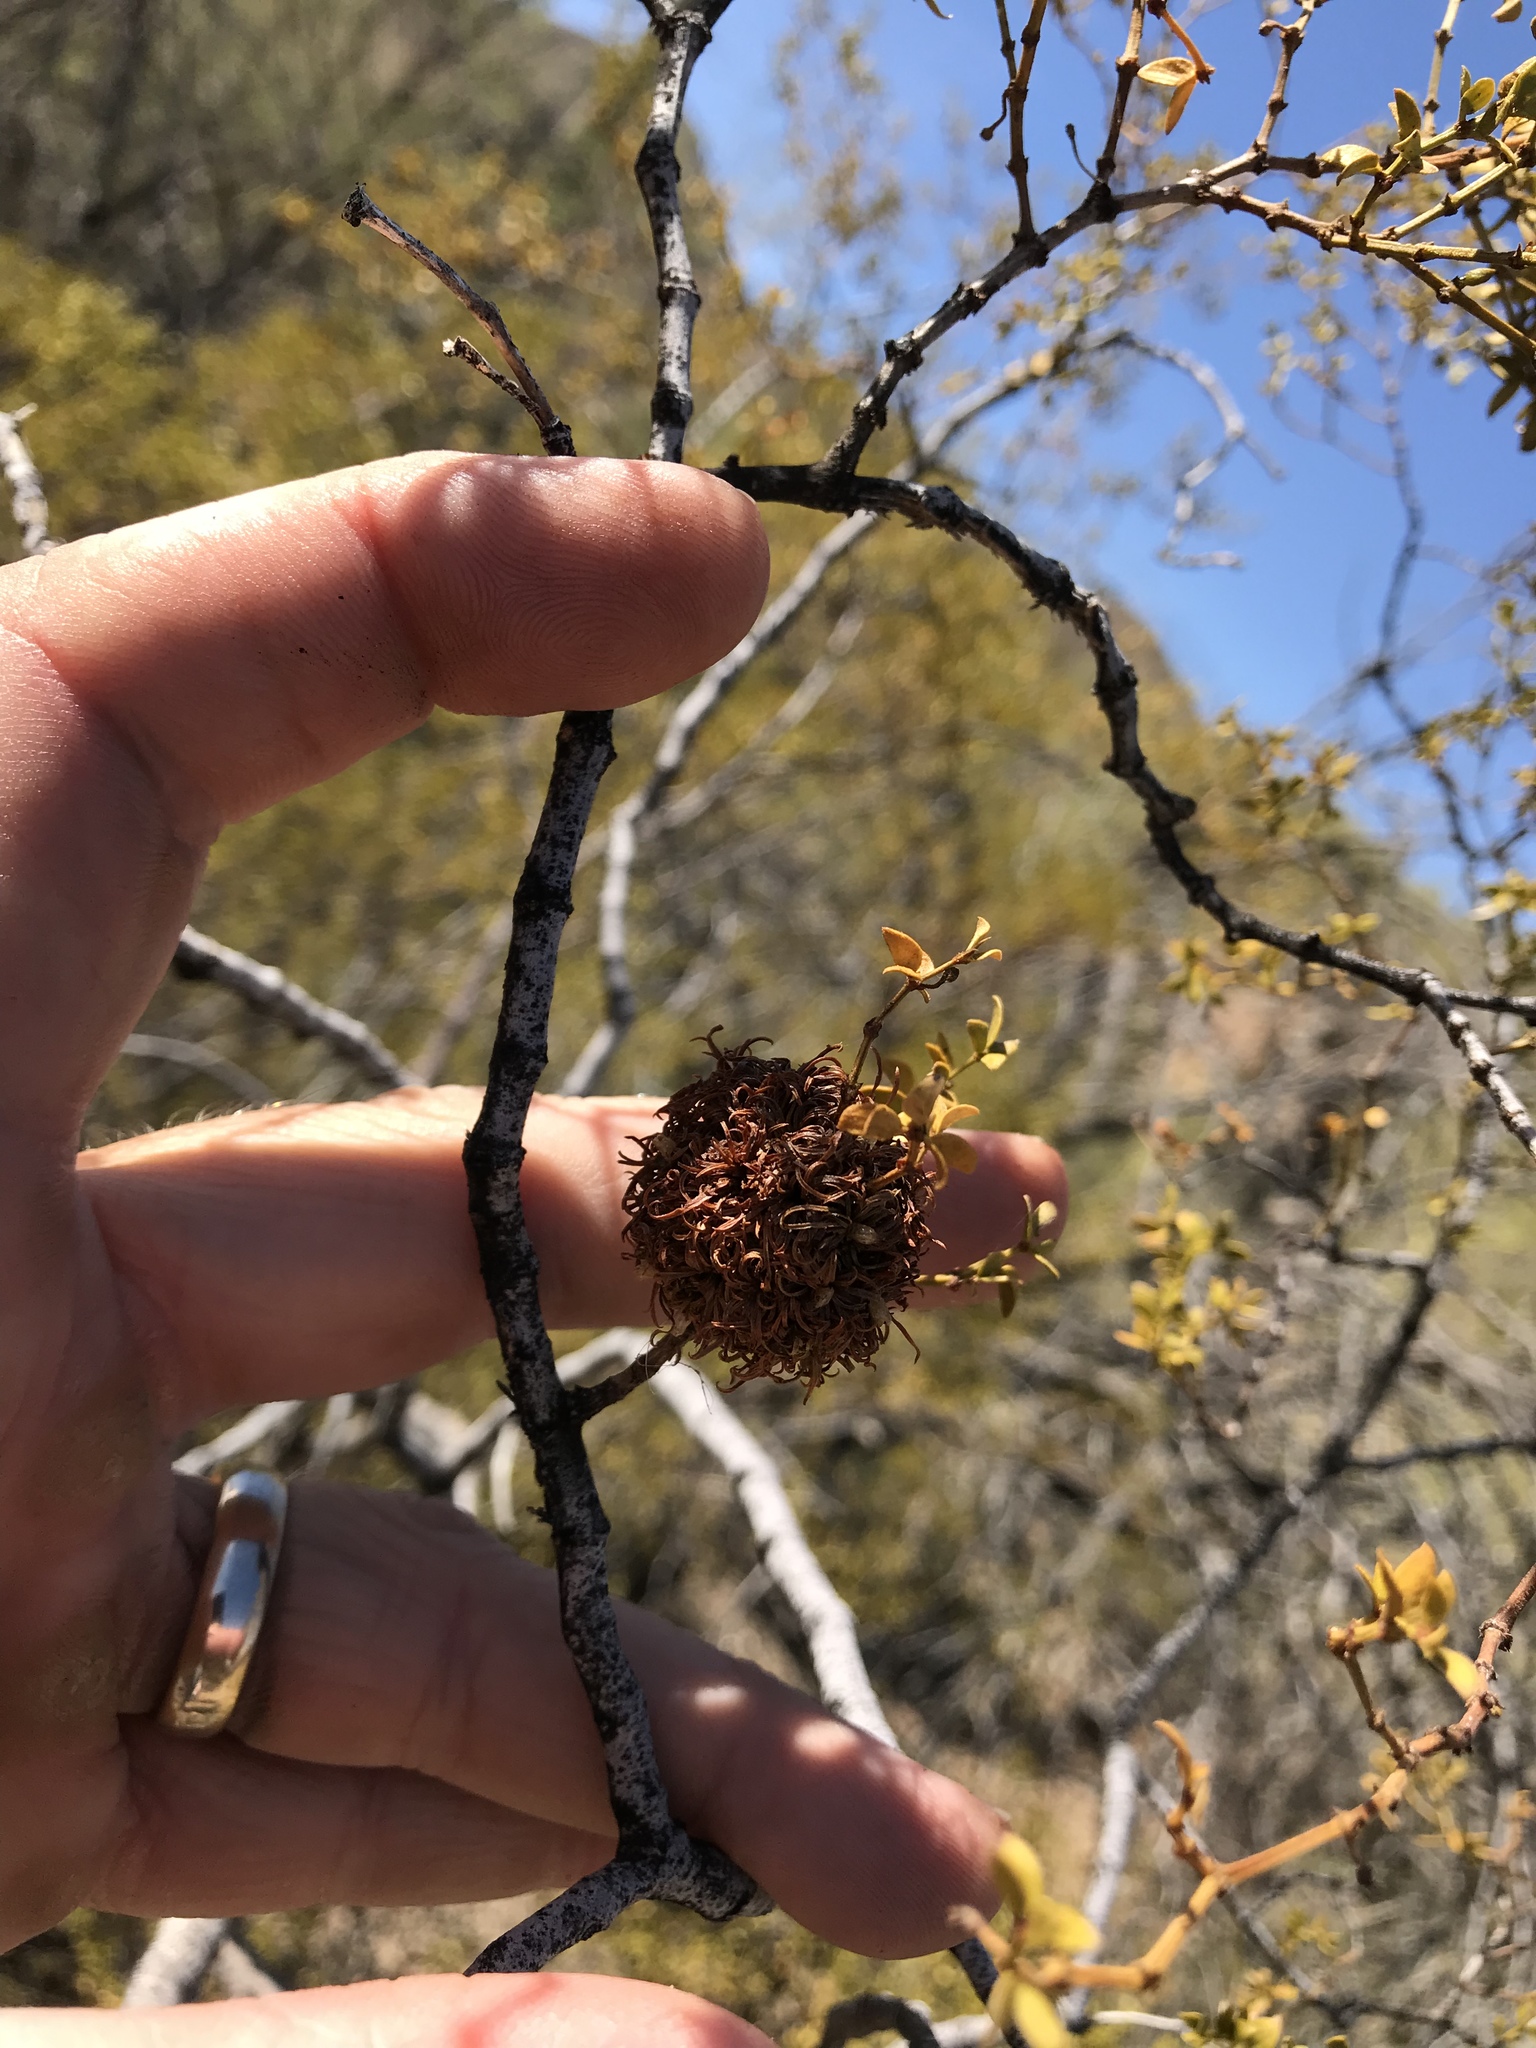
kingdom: Animalia
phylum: Arthropoda
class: Insecta
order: Diptera
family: Cecidomyiidae
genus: Asphondylia
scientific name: Asphondylia auripila
